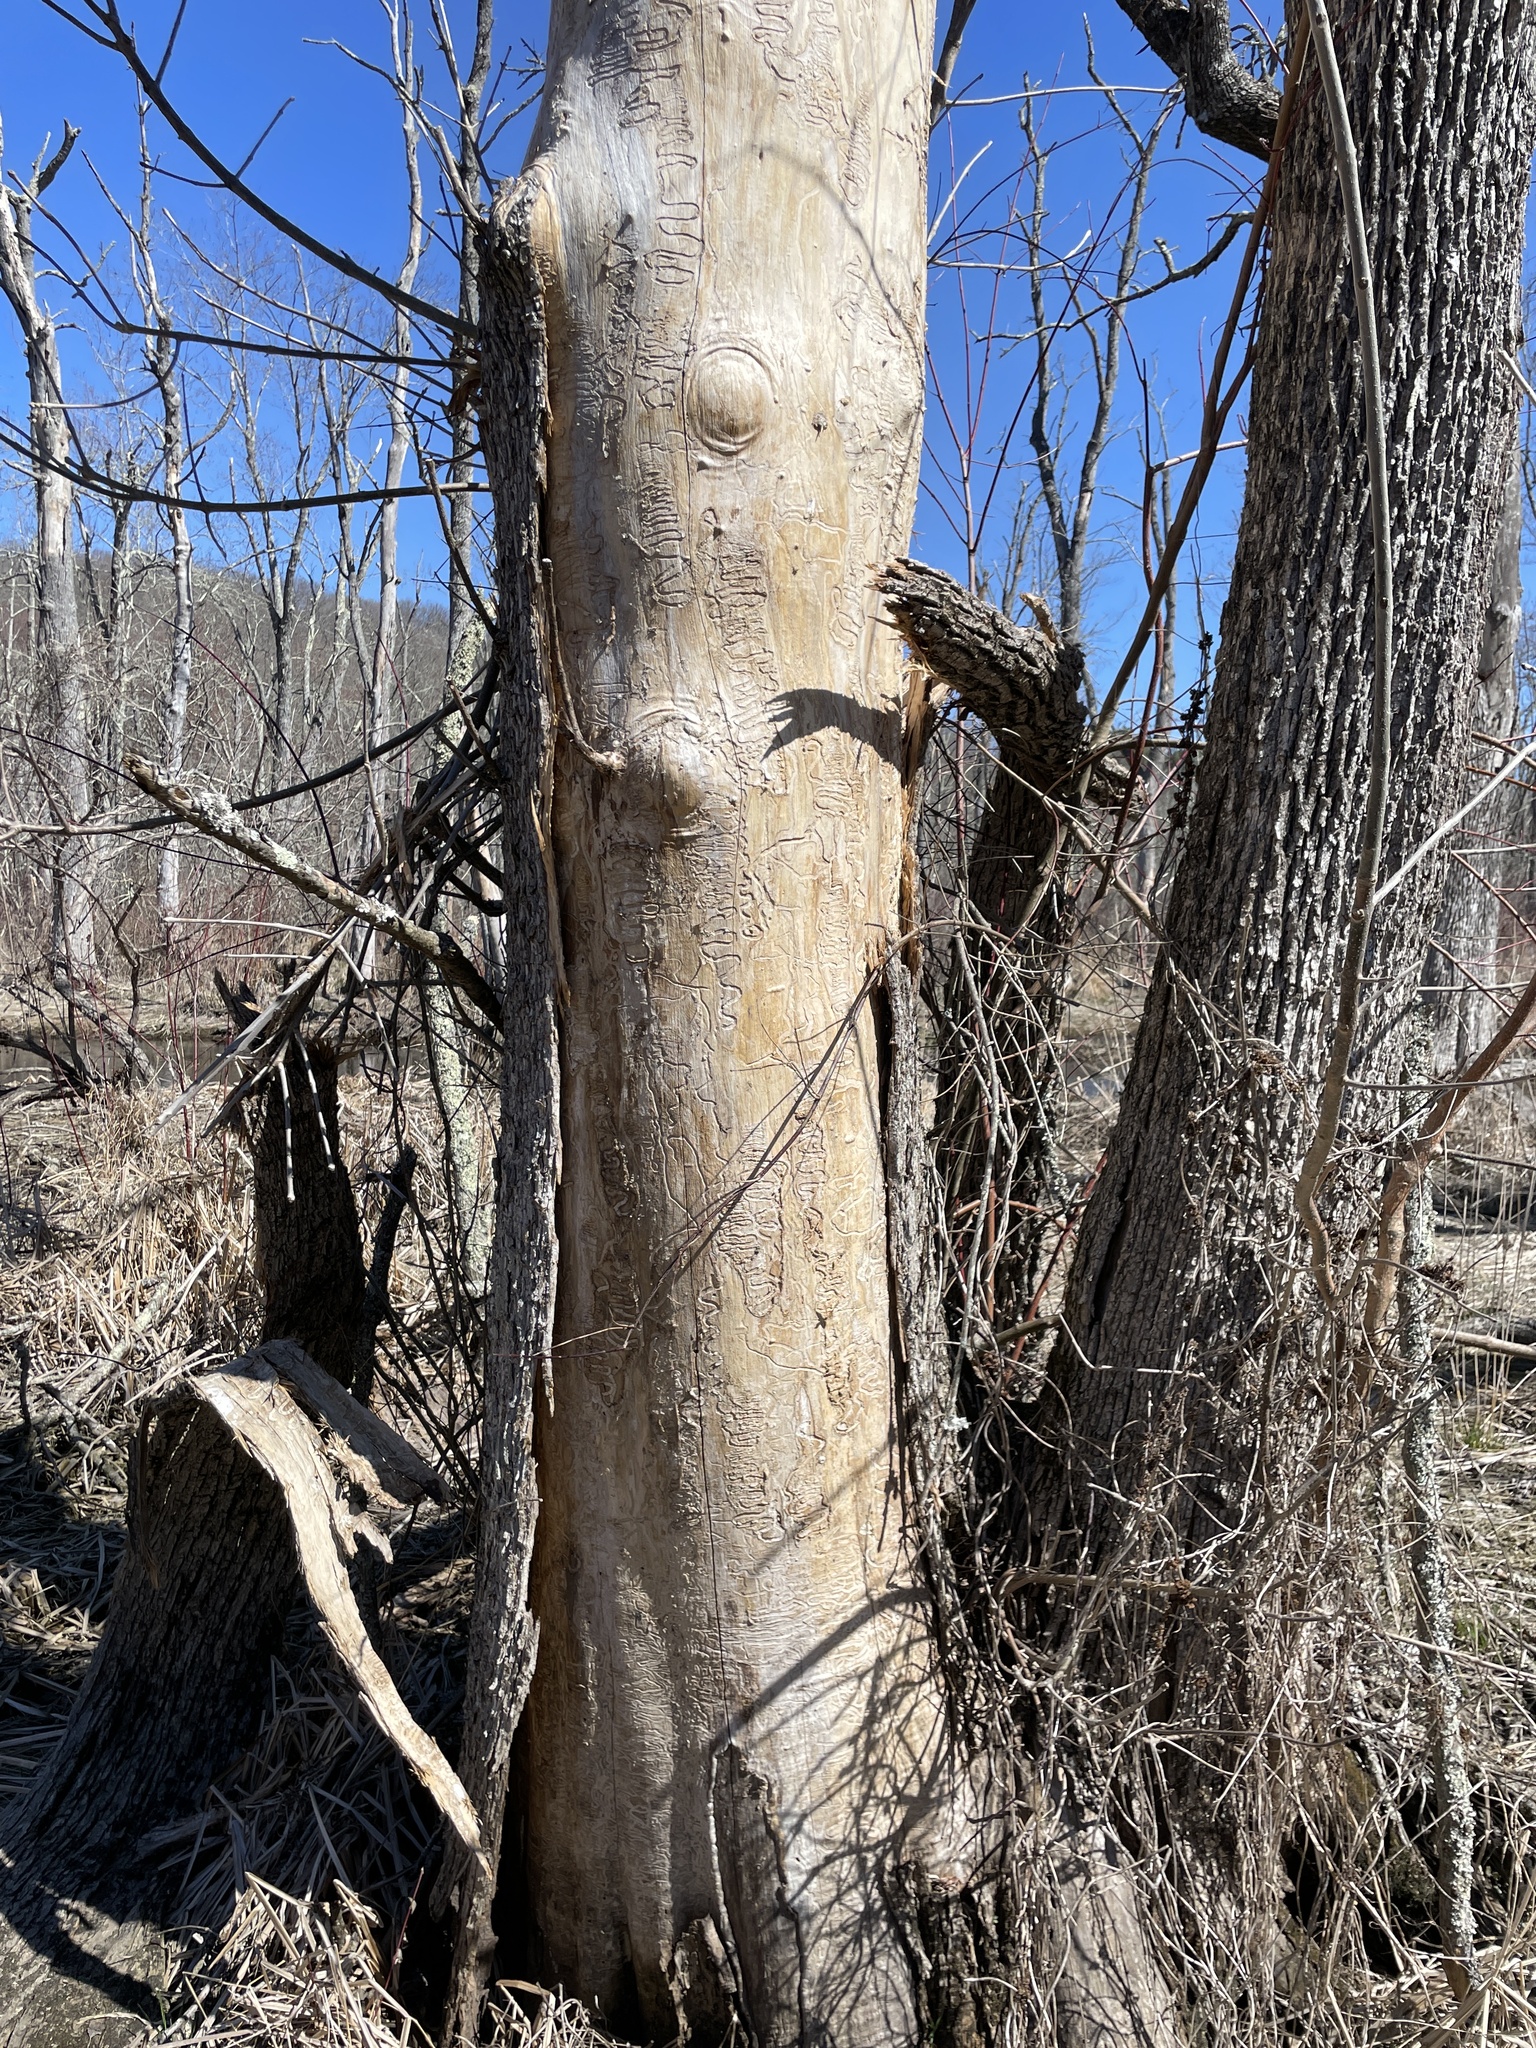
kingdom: Animalia
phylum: Arthropoda
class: Insecta
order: Coleoptera
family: Buprestidae
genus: Agrilus
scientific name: Agrilus planipennis
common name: Emerald ash borer
